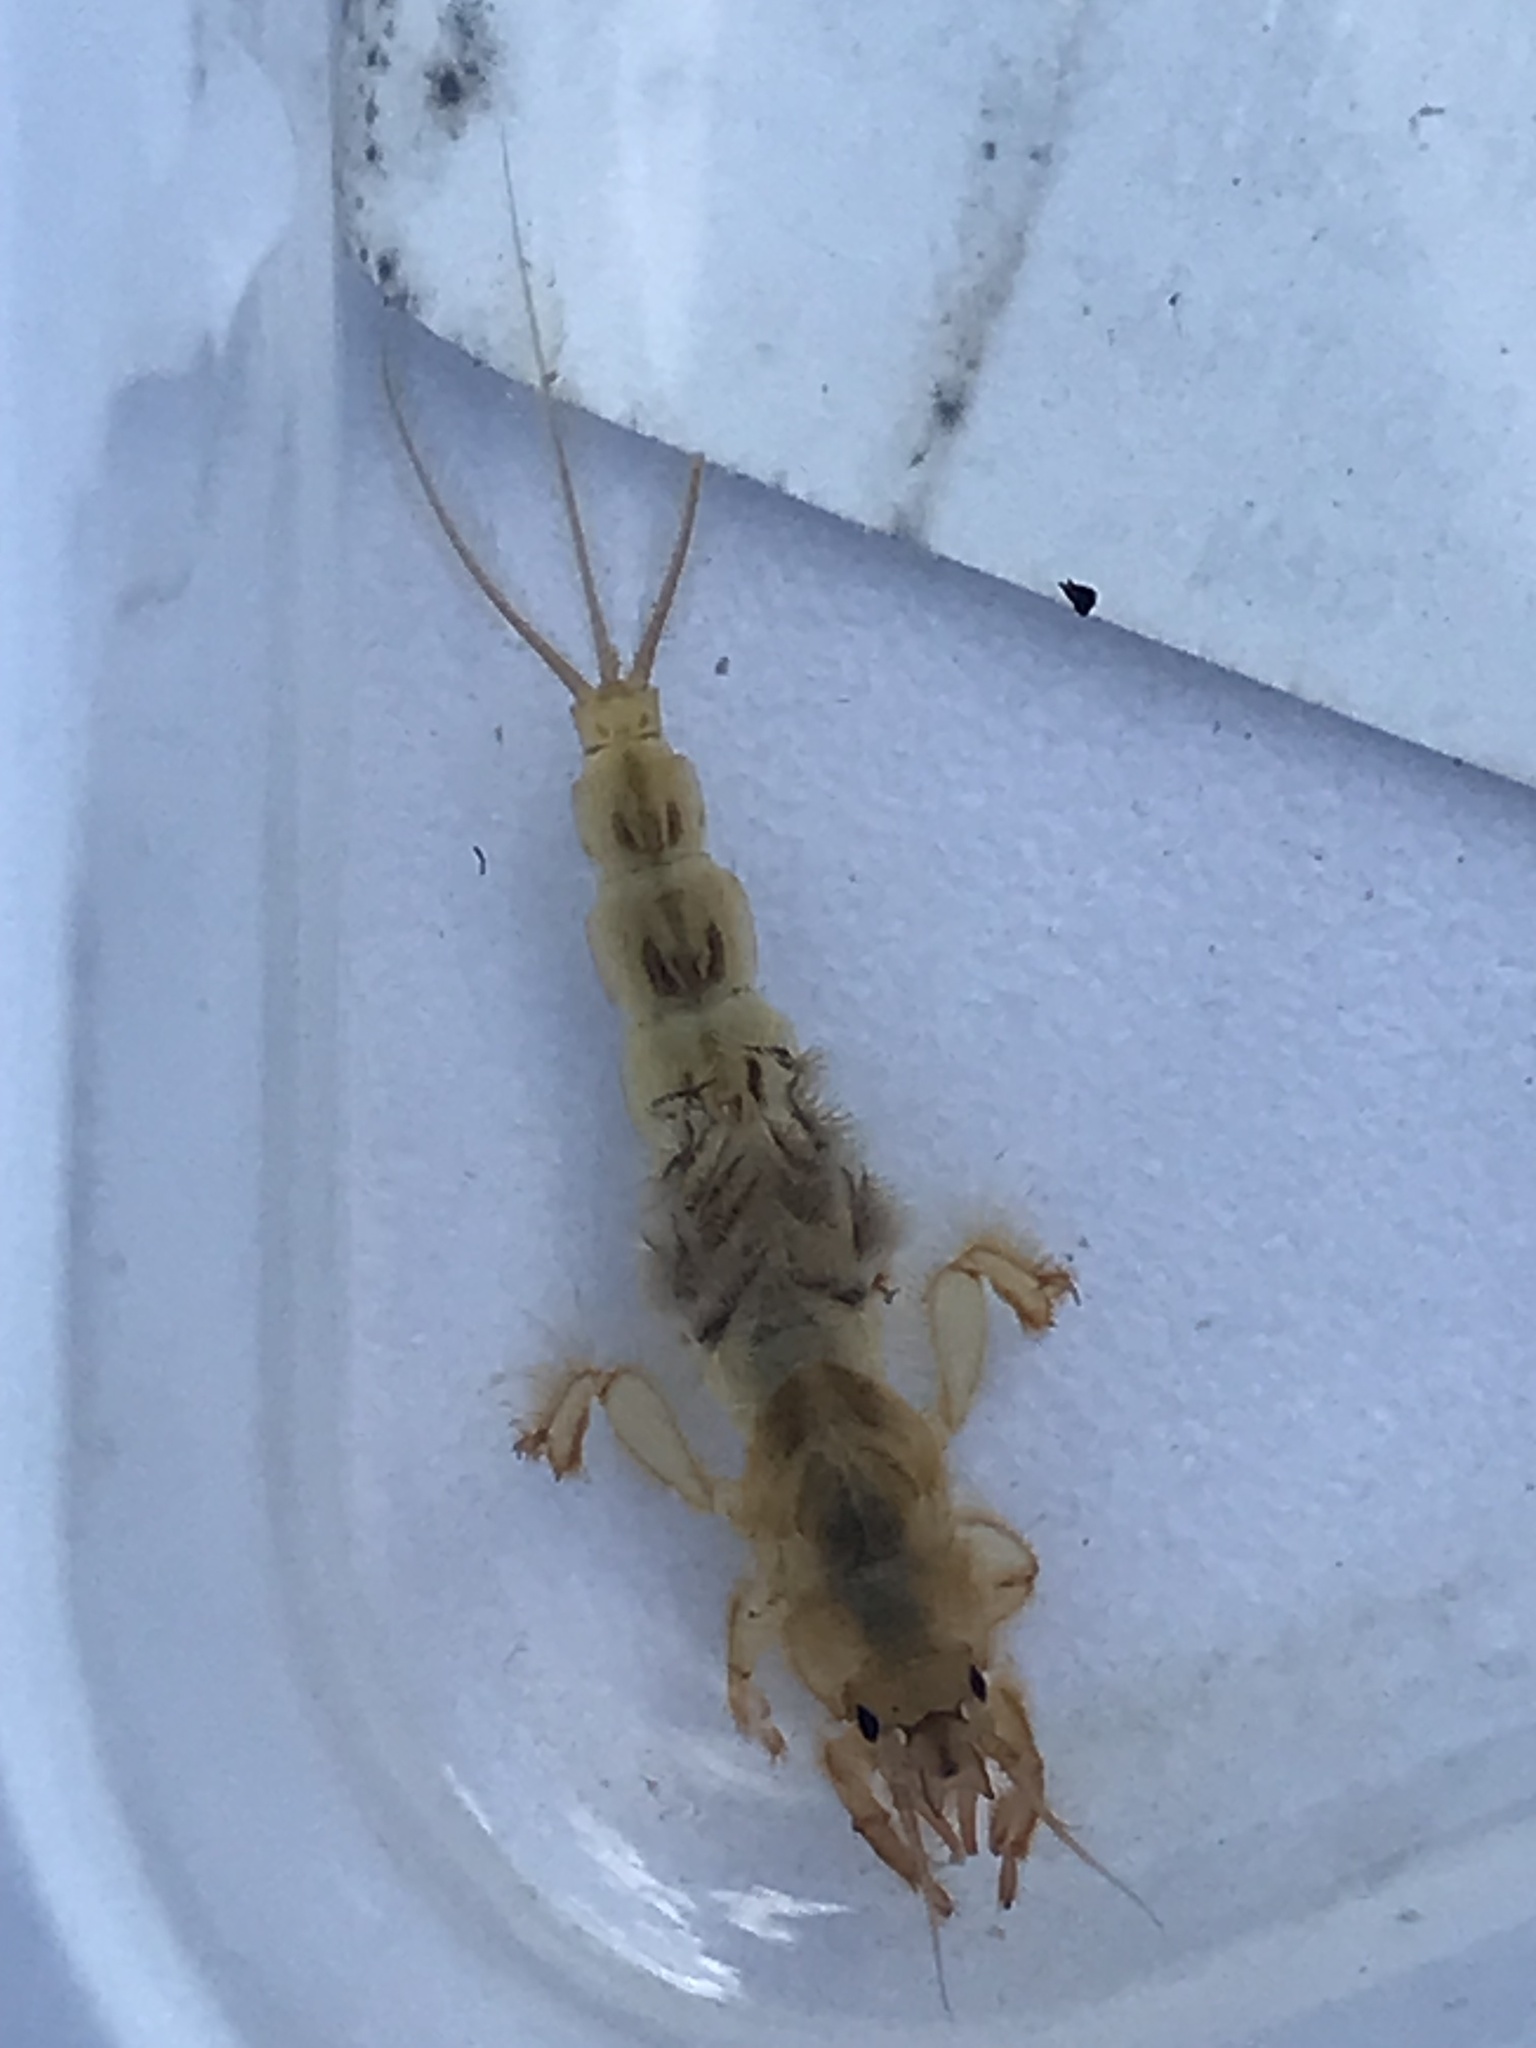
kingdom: Animalia
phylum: Arthropoda
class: Insecta
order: Ephemeroptera
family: Ephemeridae
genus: Ephemera
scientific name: Ephemera danica
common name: Green dun
